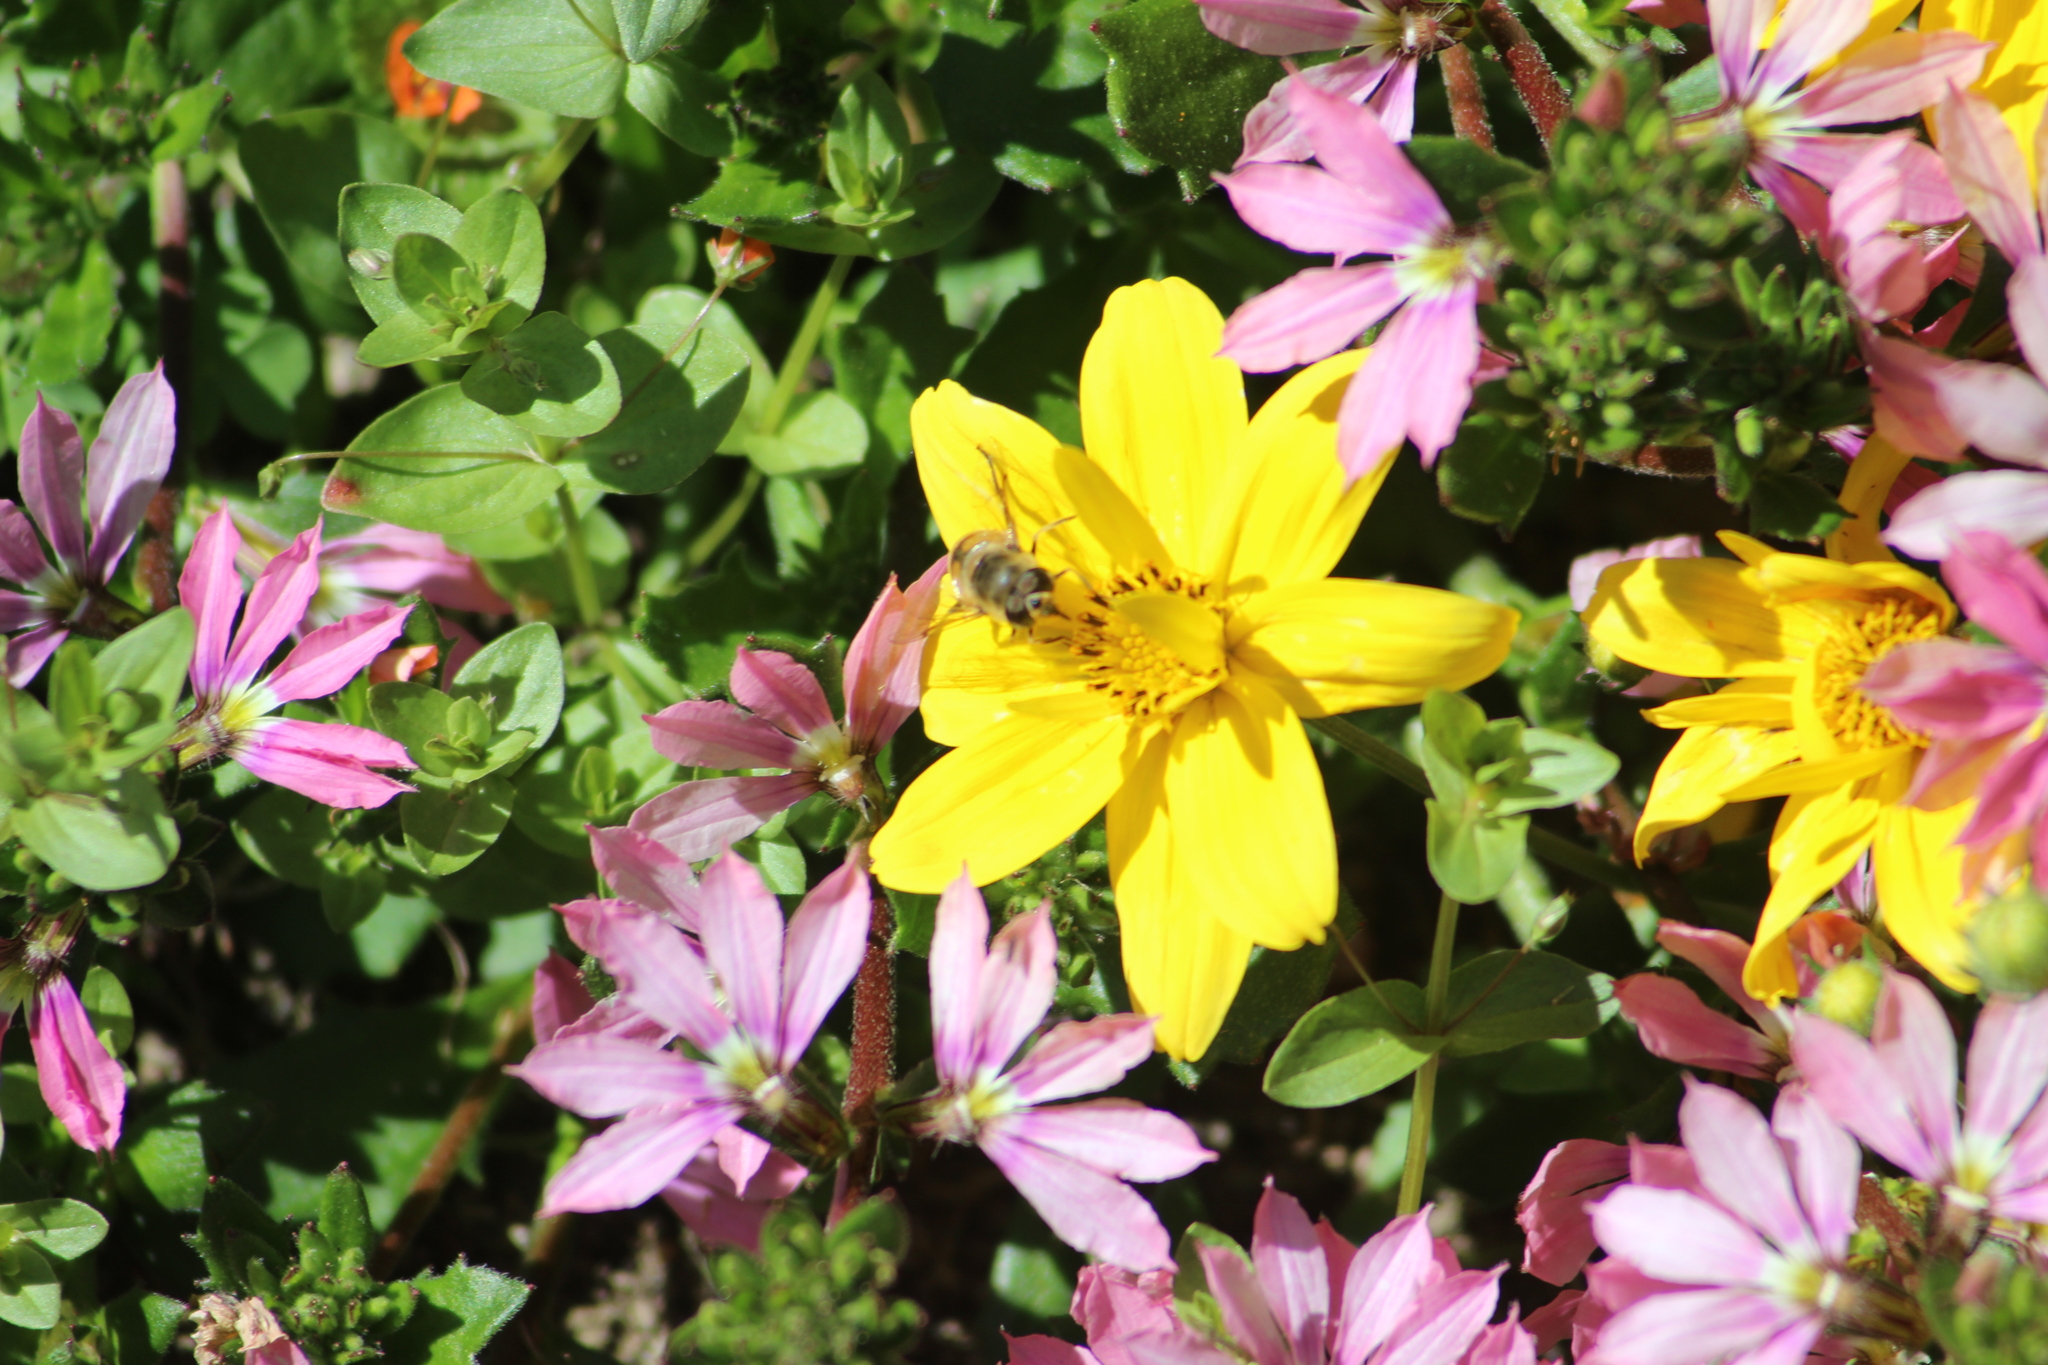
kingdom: Animalia
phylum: Arthropoda
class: Insecta
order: Diptera
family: Syrphidae
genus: Eristalis
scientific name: Eristalis tenax
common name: Drone fly
